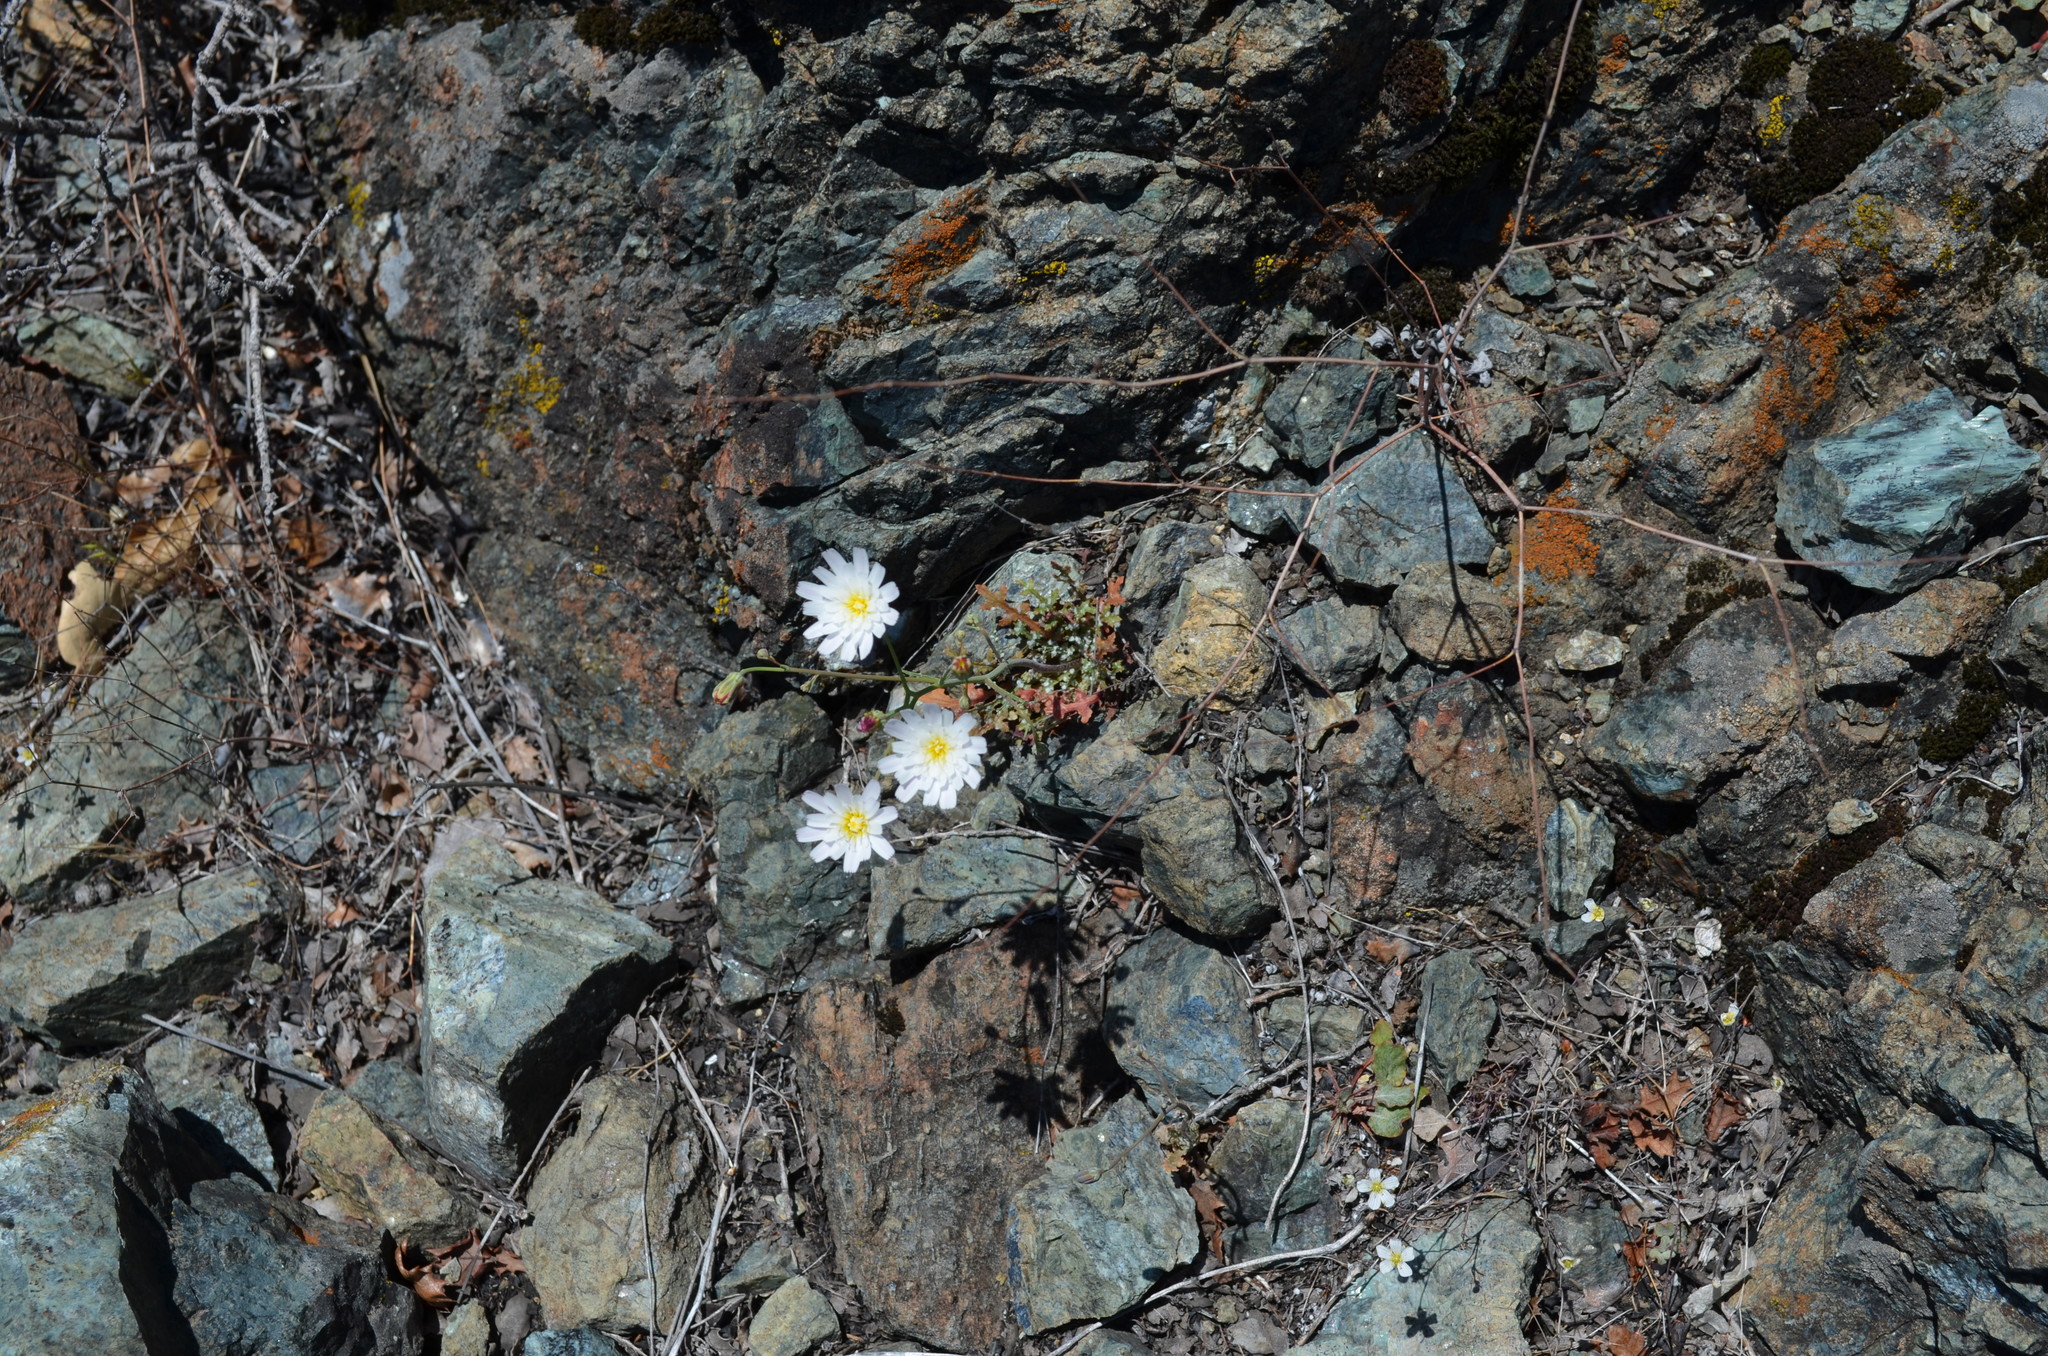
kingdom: Plantae
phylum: Tracheophyta
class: Magnoliopsida
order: Asterales
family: Asteraceae
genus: Malacothrix
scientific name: Malacothrix floccifera
